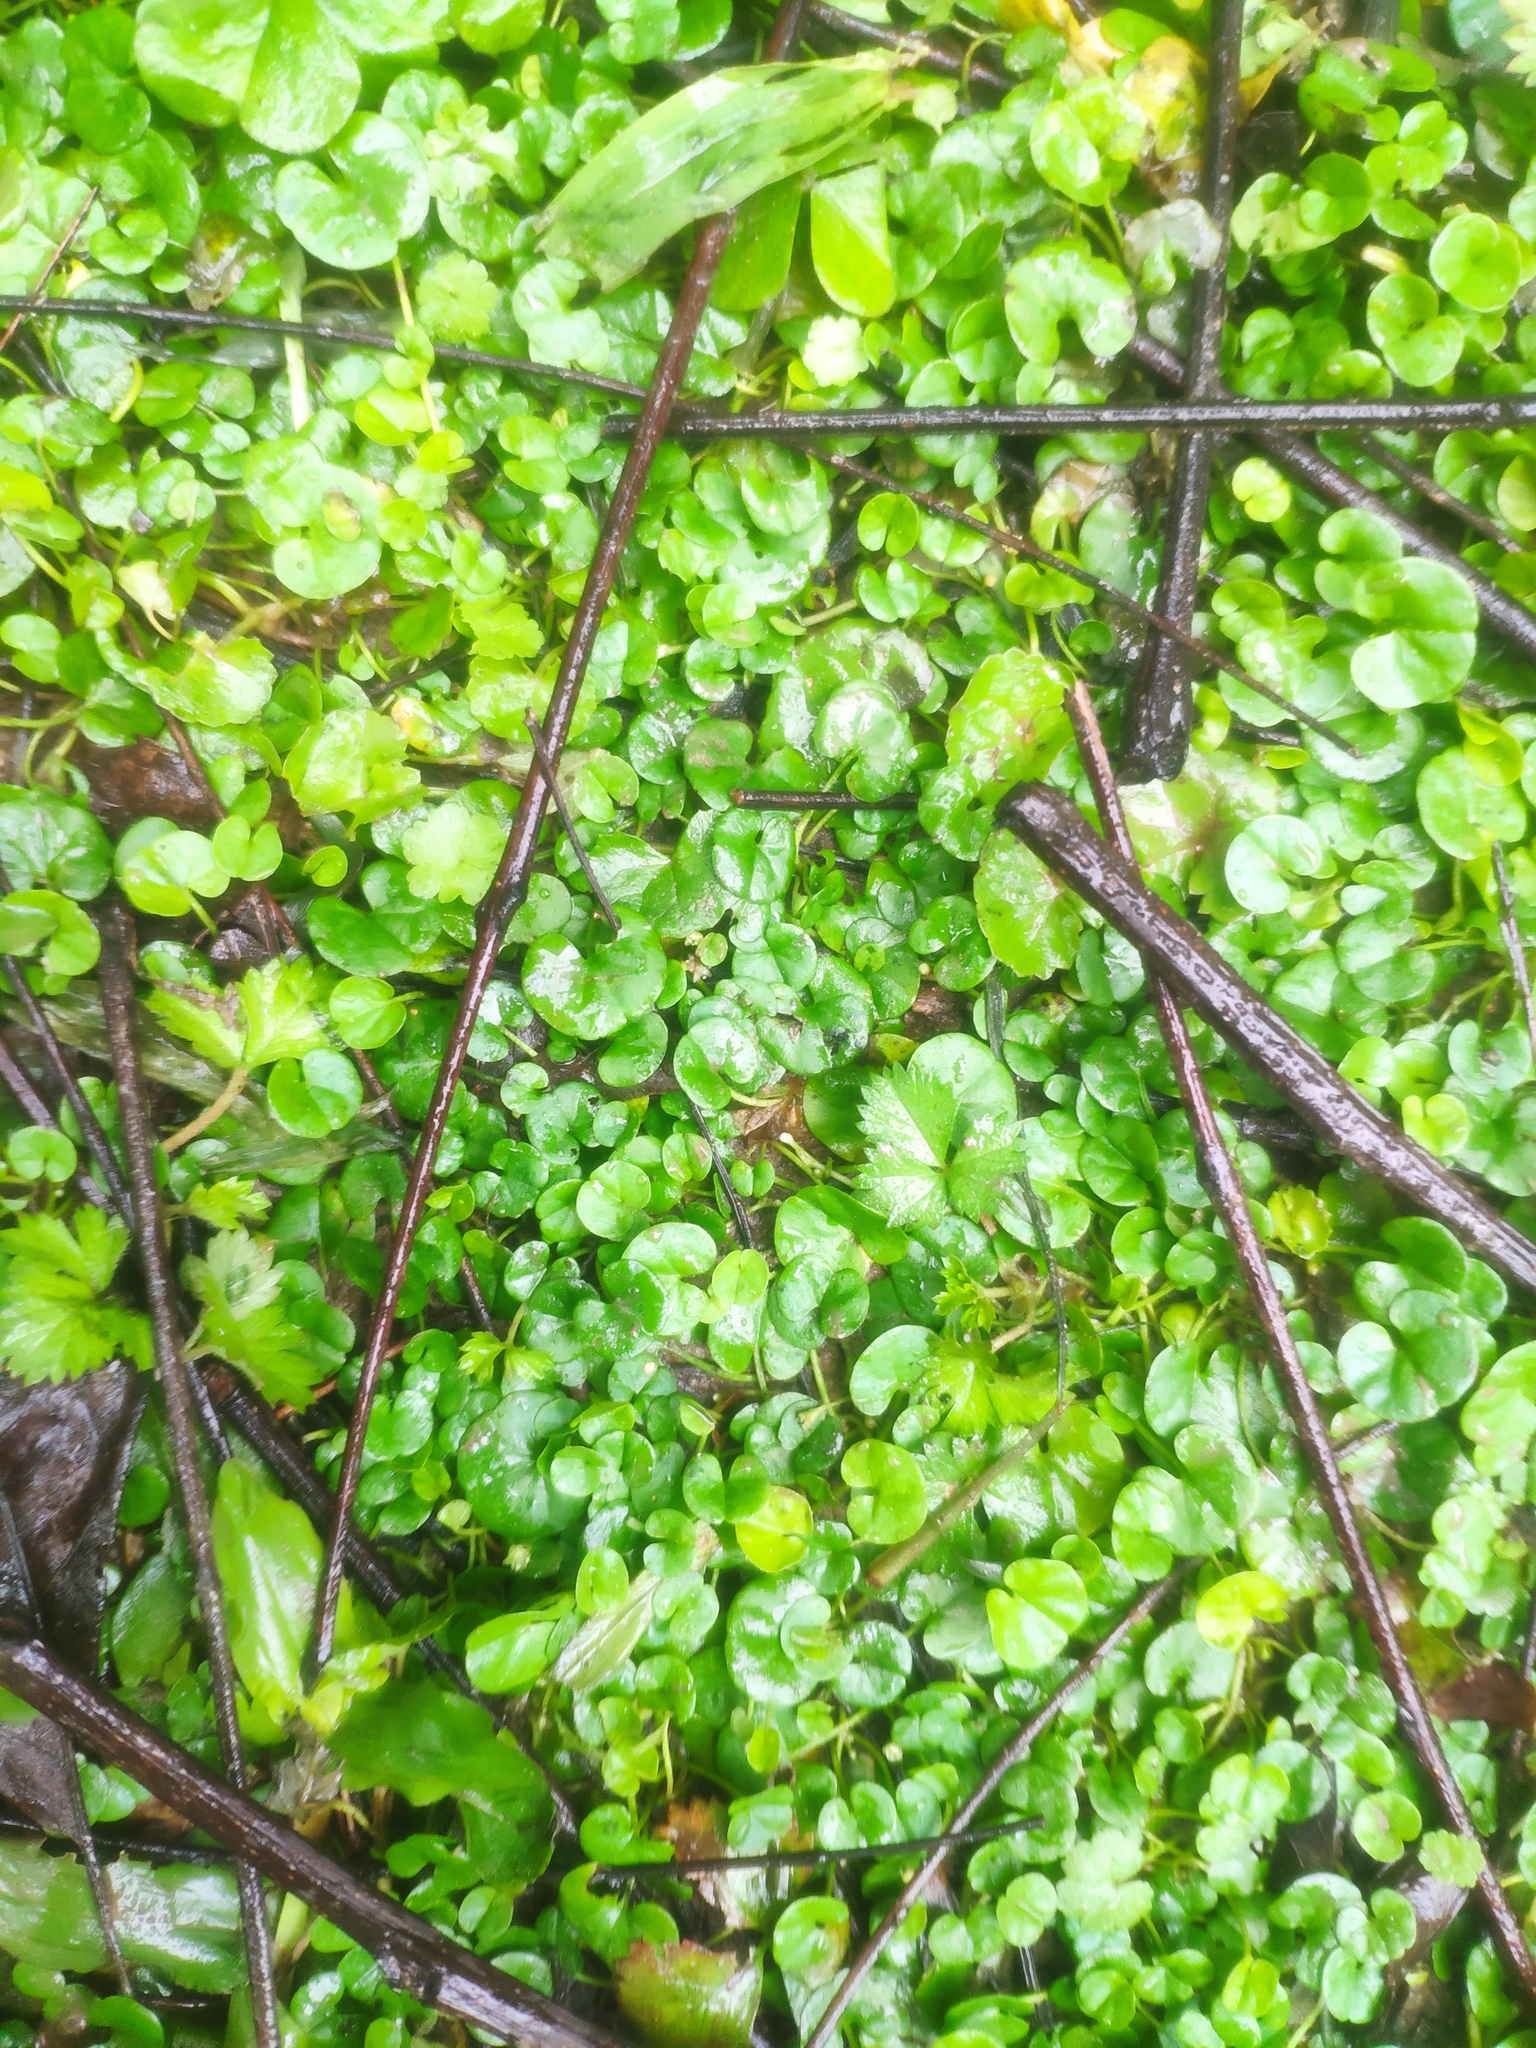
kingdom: Plantae
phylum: Tracheophyta
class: Magnoliopsida
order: Solanales
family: Convolvulaceae
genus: Dichondra
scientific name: Dichondra micrantha
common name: Kidneyweed
